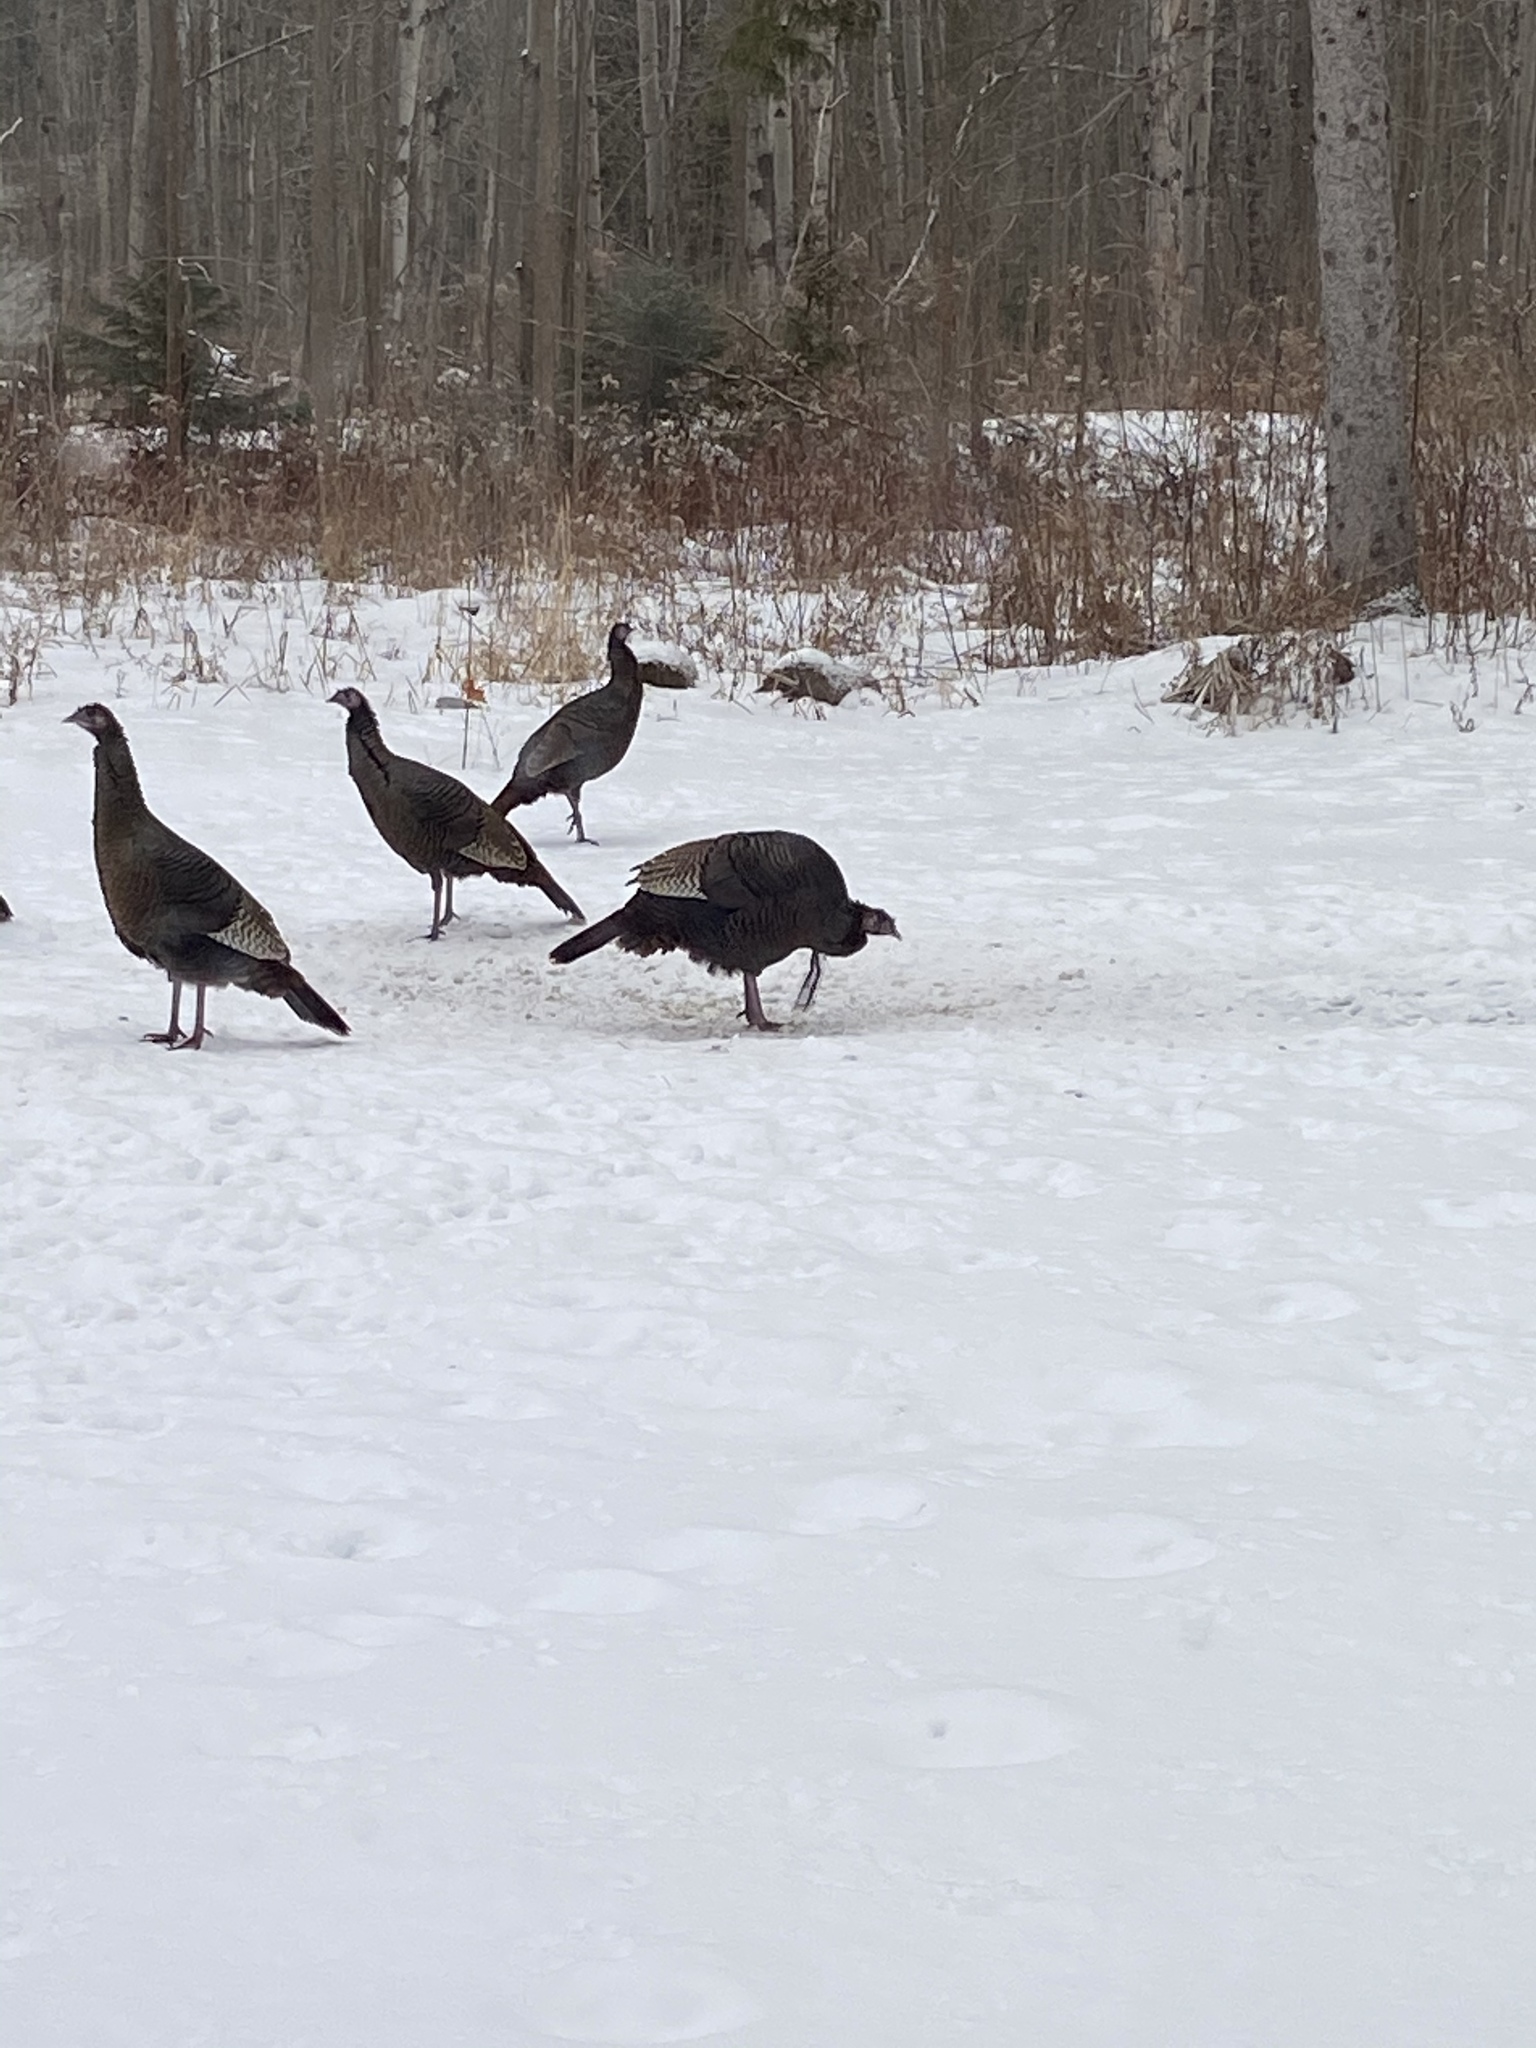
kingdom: Animalia
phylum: Chordata
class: Aves
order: Galliformes
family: Phasianidae
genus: Meleagris
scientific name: Meleagris gallopavo
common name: Wild turkey
